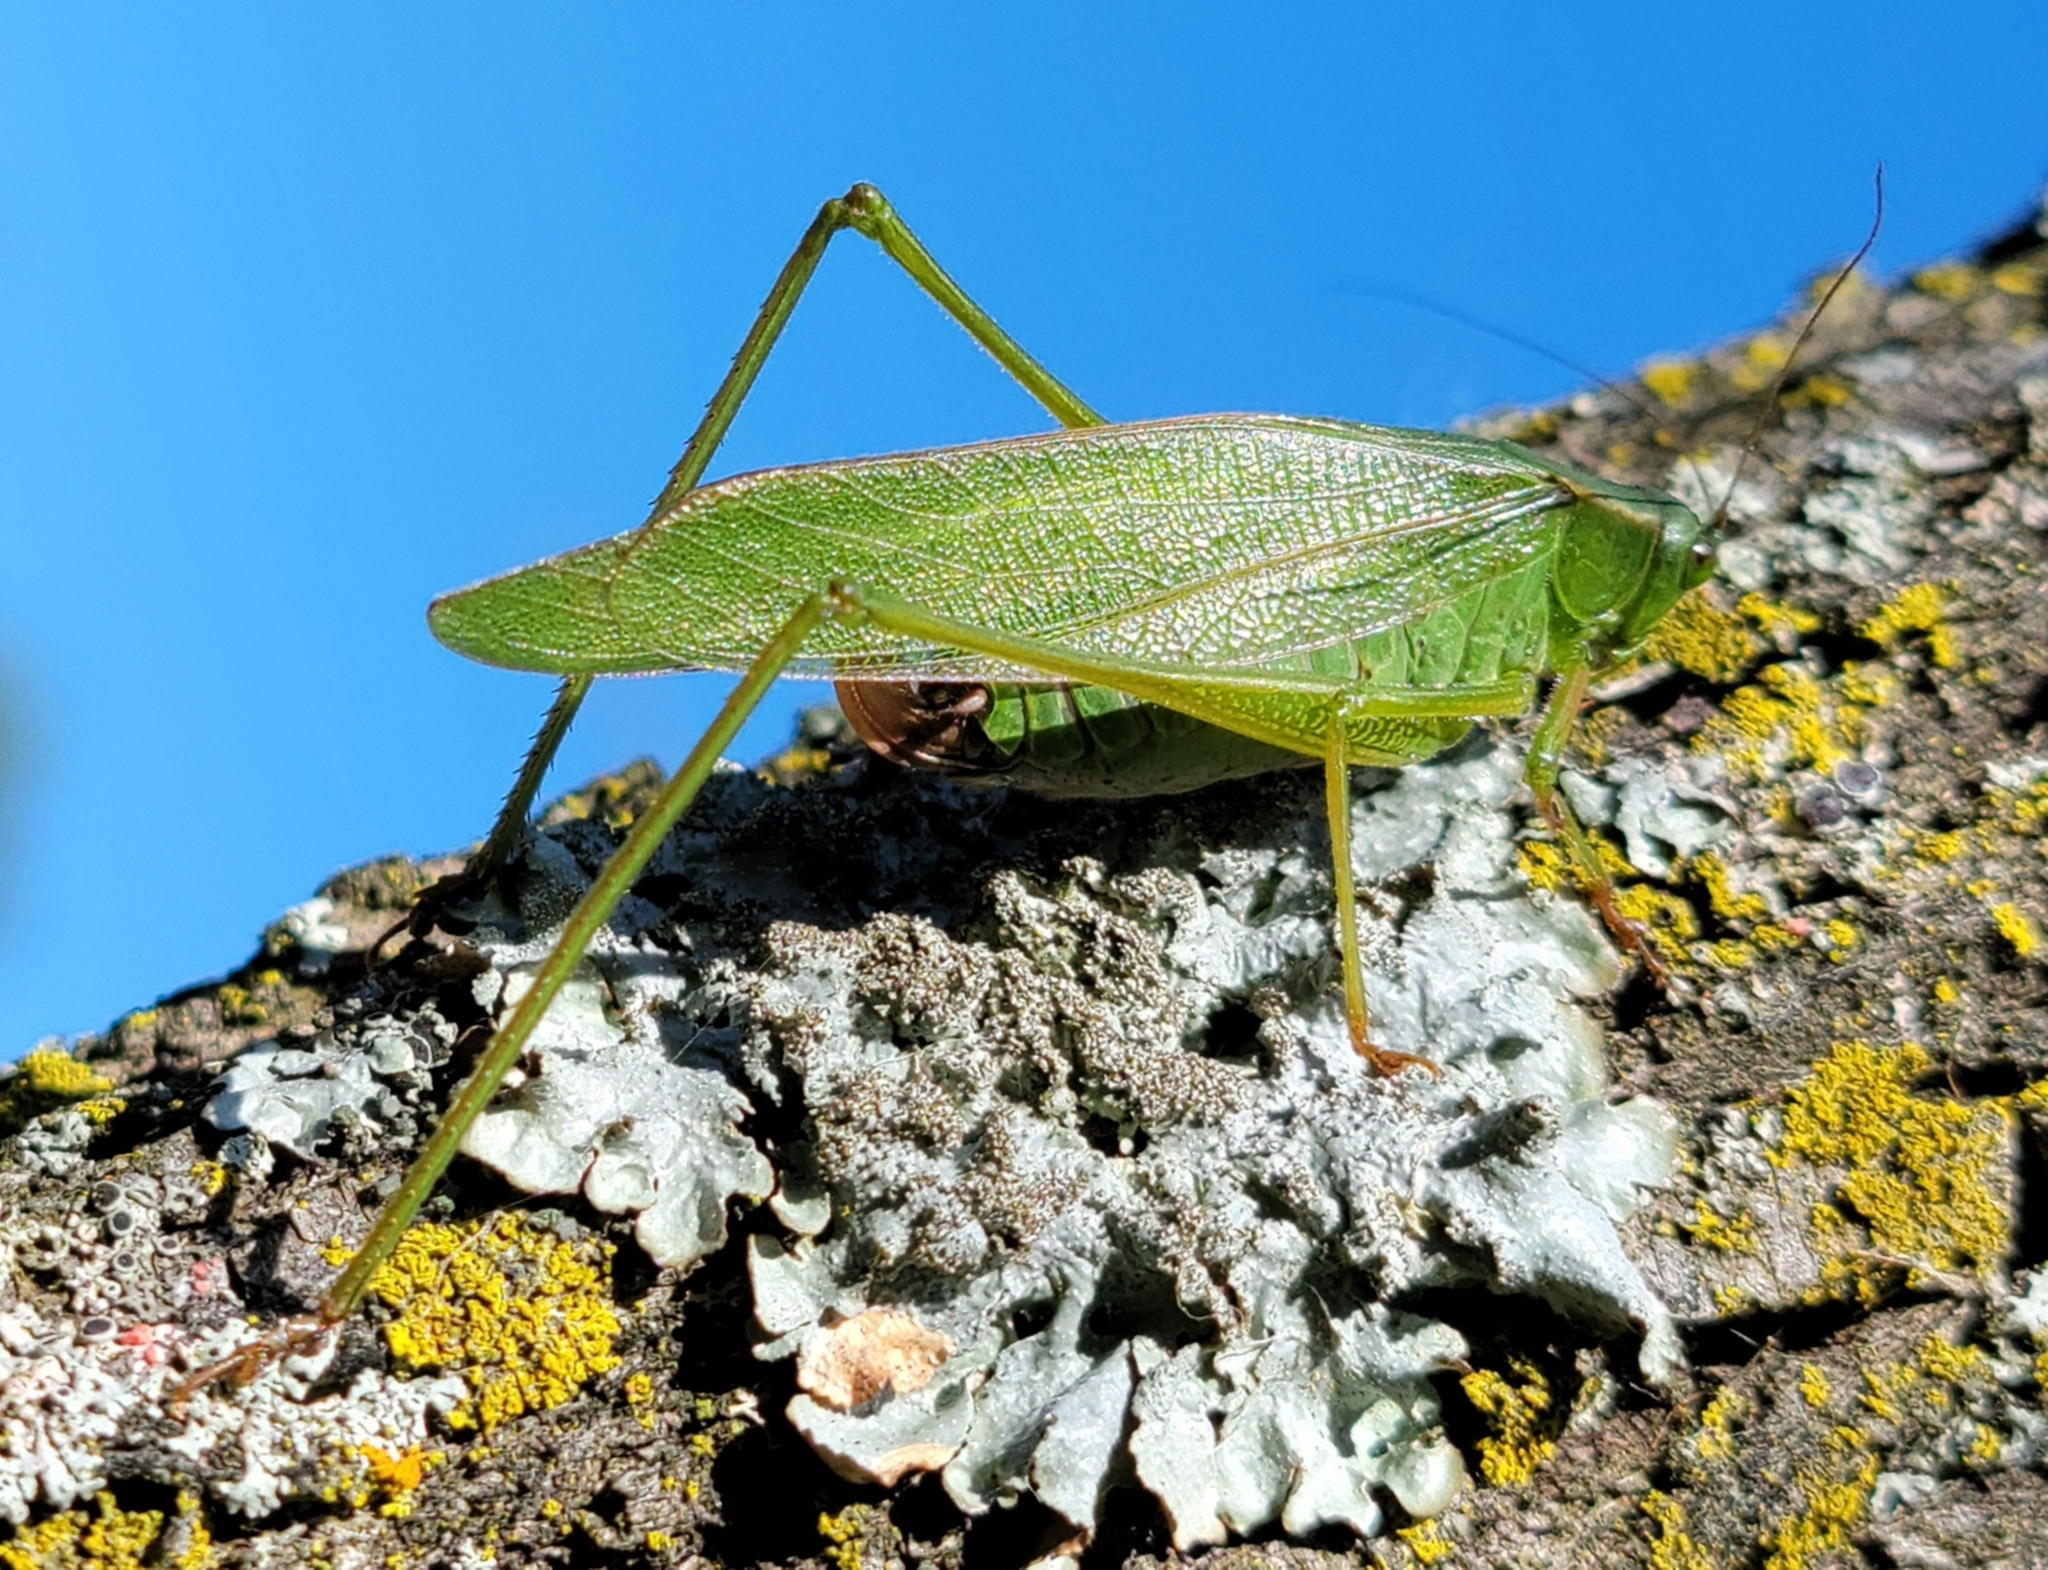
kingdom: Animalia
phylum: Arthropoda
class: Insecta
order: Orthoptera
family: Tettigoniidae
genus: Scudderia
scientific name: Scudderia pistillata
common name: Broad-winged bush-katydid
